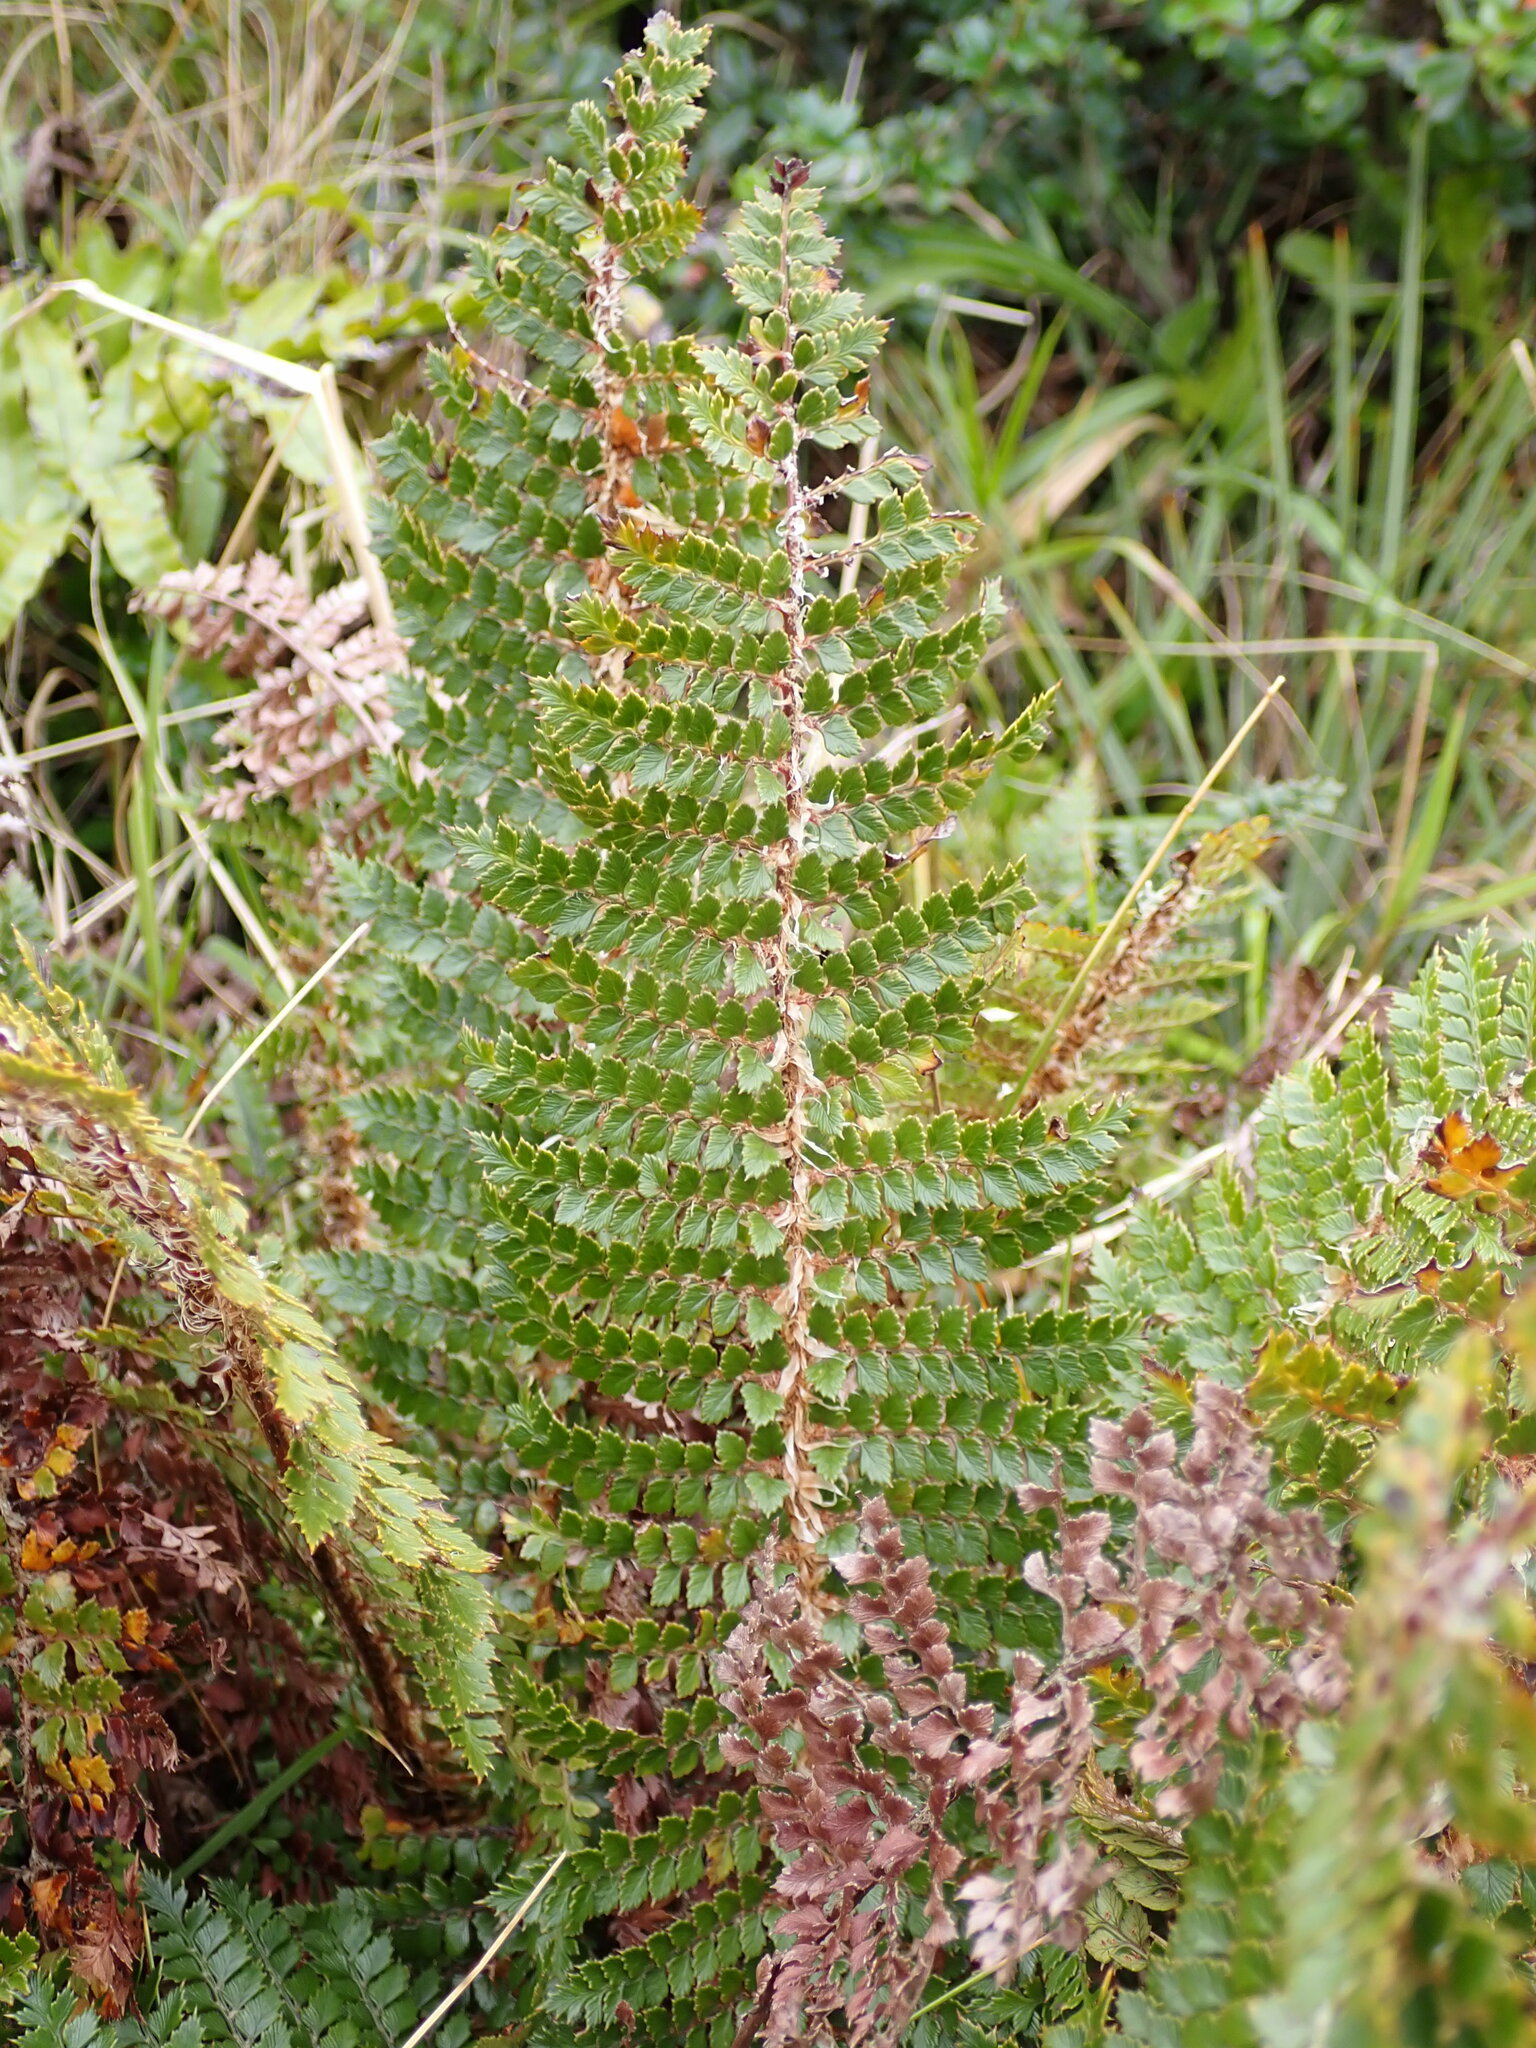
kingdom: Plantae
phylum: Tracheophyta
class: Polypodiopsida
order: Polypodiales
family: Dryopteridaceae
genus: Polystichum
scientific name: Polystichum vestitum
